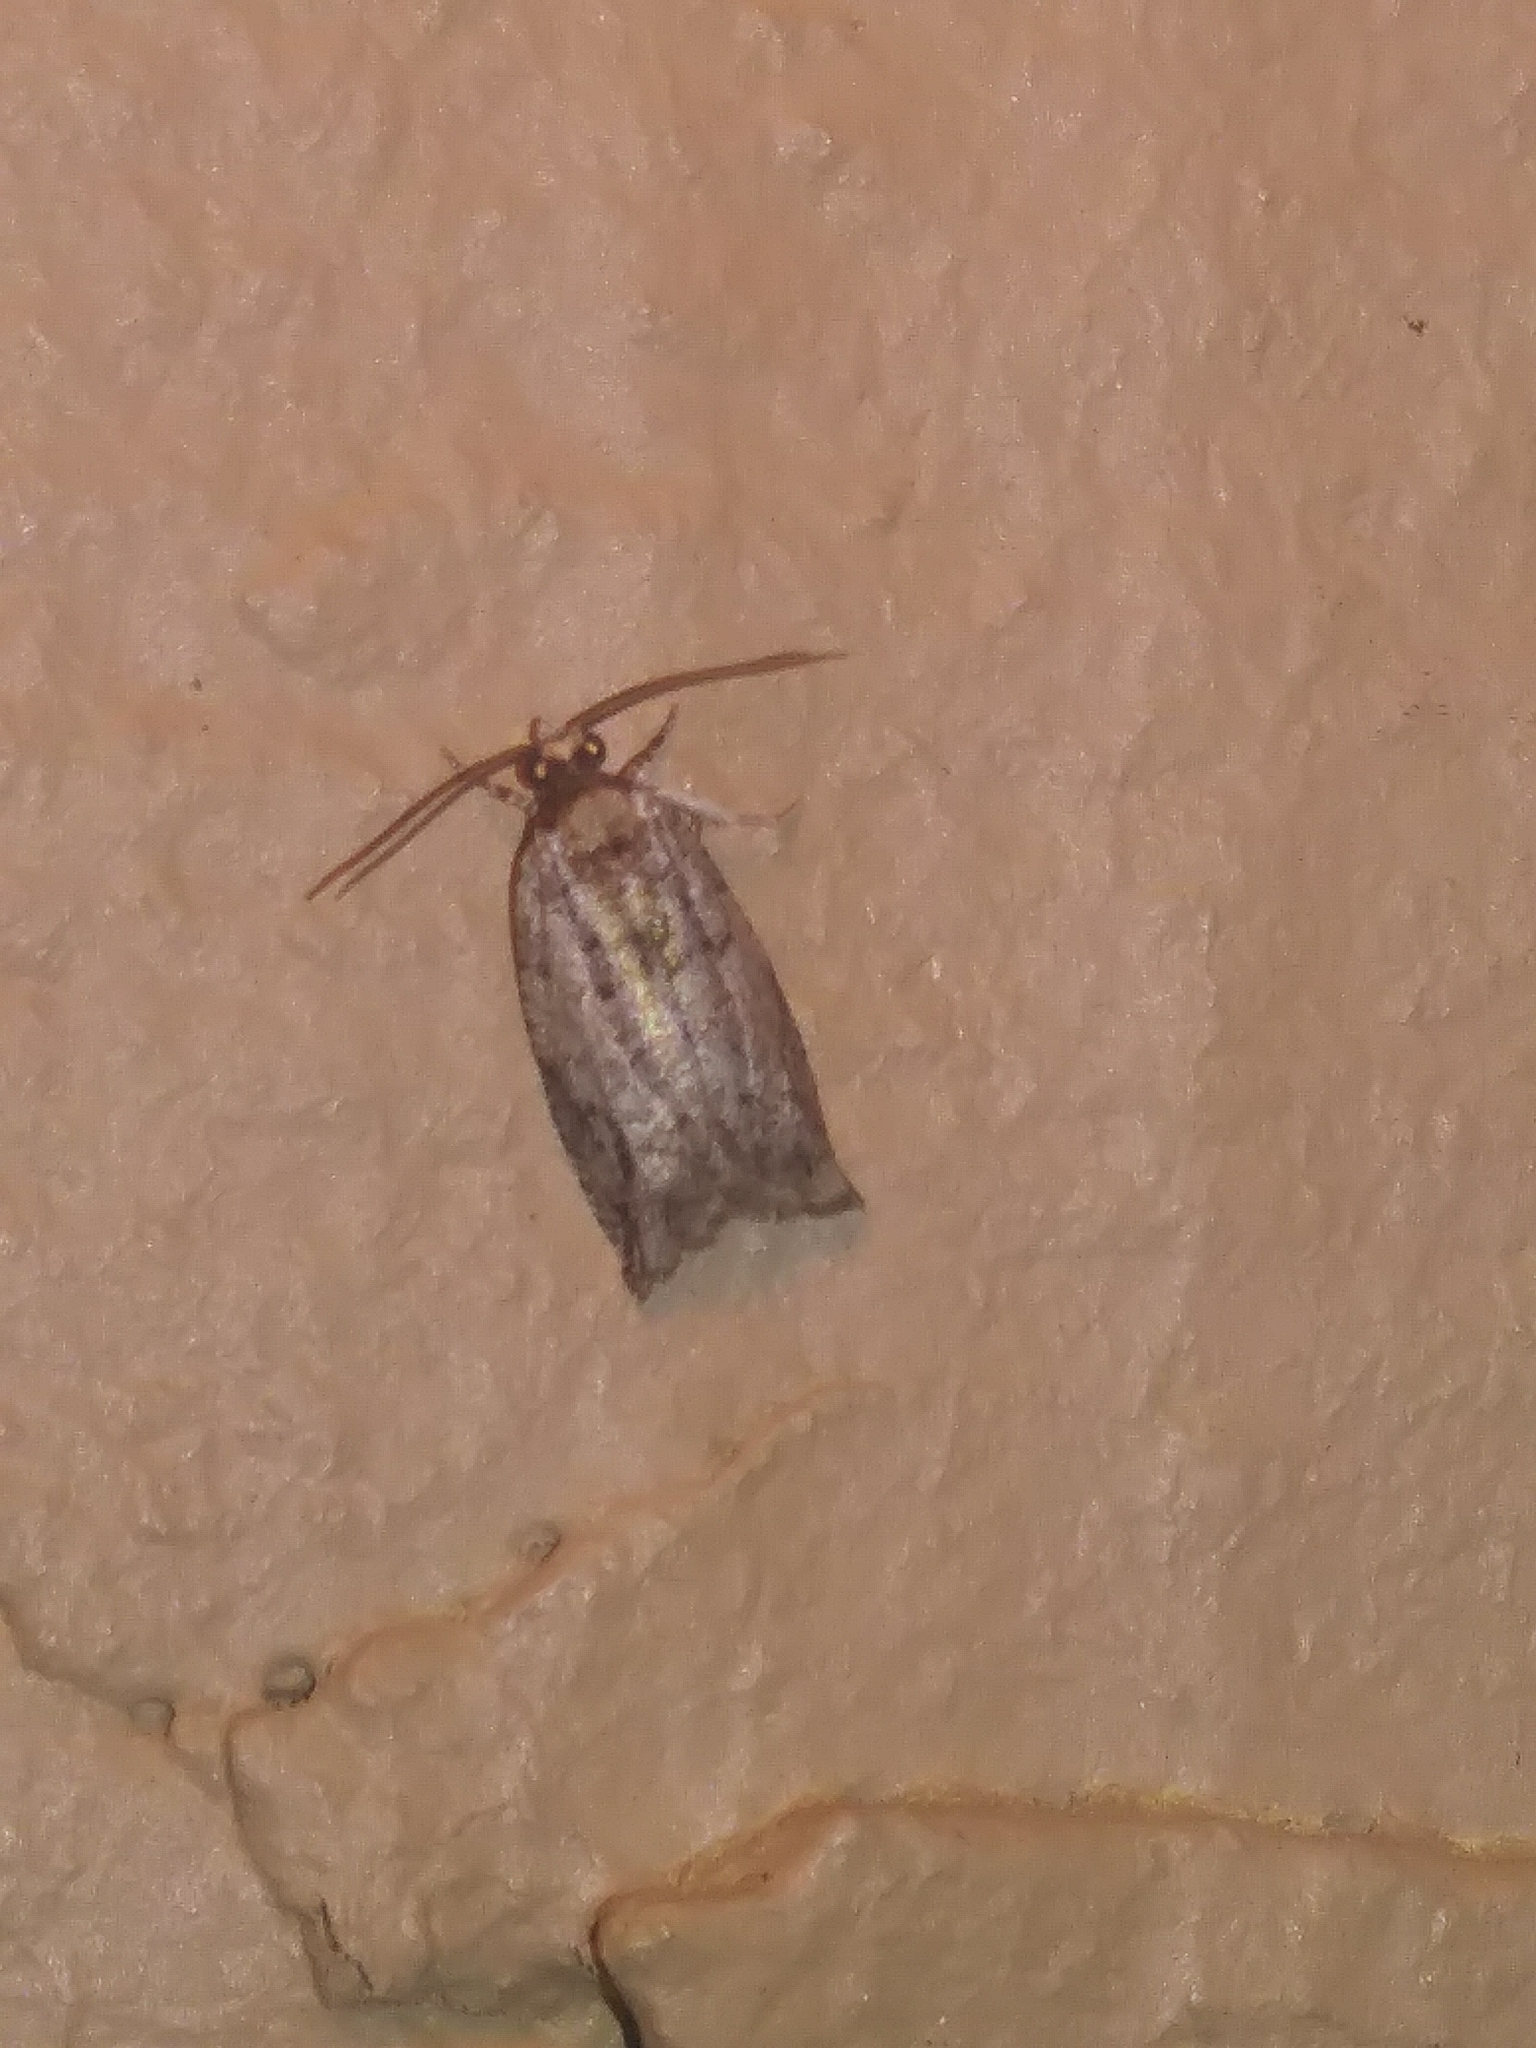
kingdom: Animalia
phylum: Arthropoda
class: Insecta
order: Lepidoptera
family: Tortricidae
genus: Rhopobota
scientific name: Rhopobota dietziana
